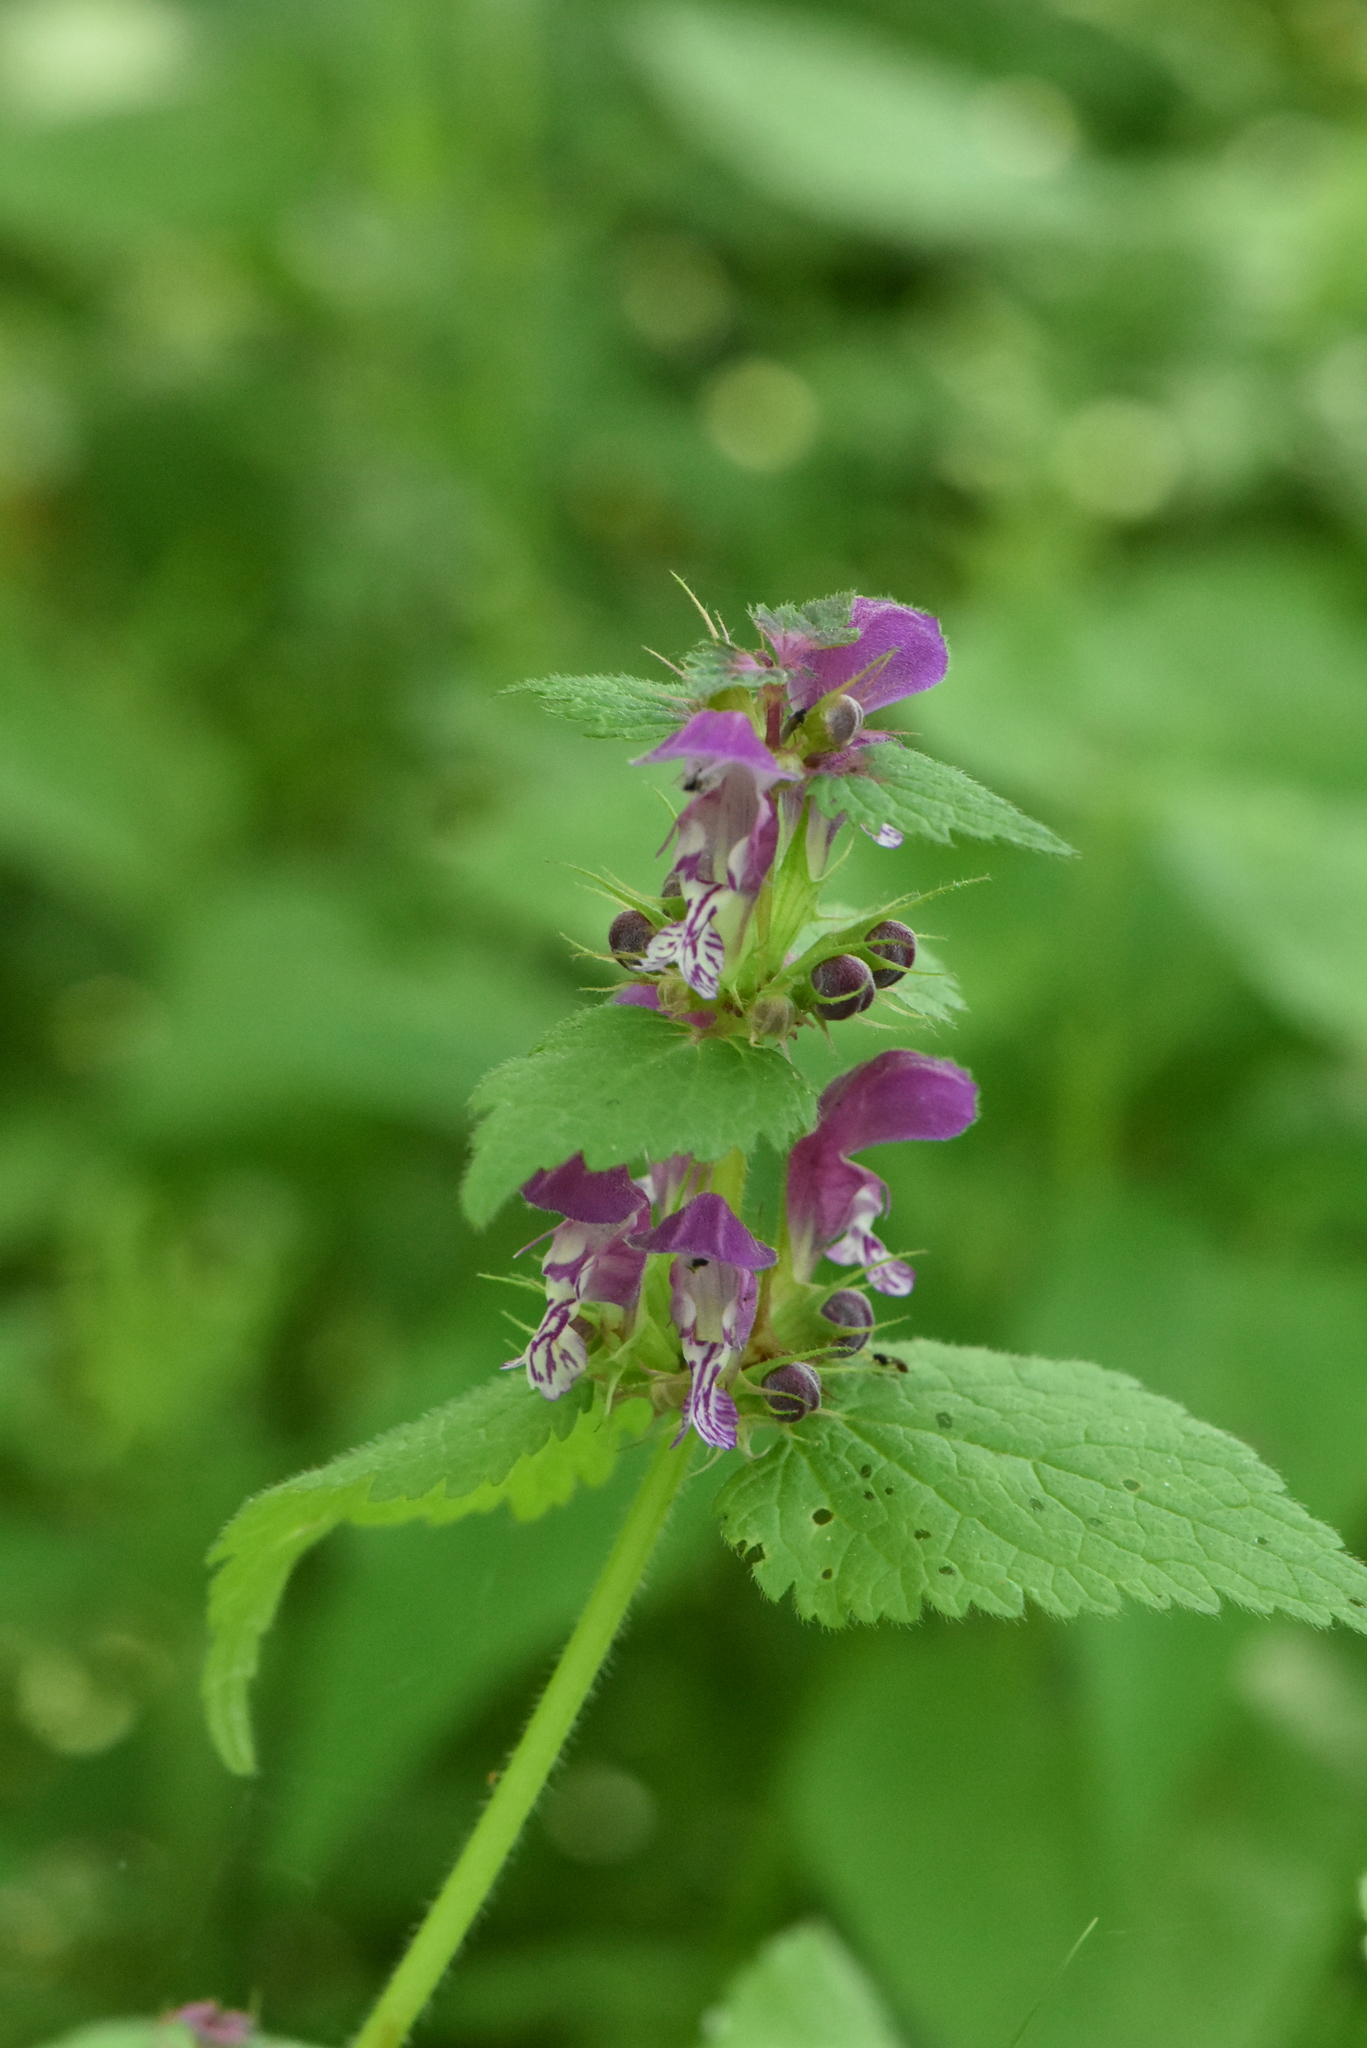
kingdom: Plantae
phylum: Tracheophyta
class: Magnoliopsida
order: Lamiales
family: Lamiaceae
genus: Lamium
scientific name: Lamium maculatum
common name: Spotted dead-nettle
